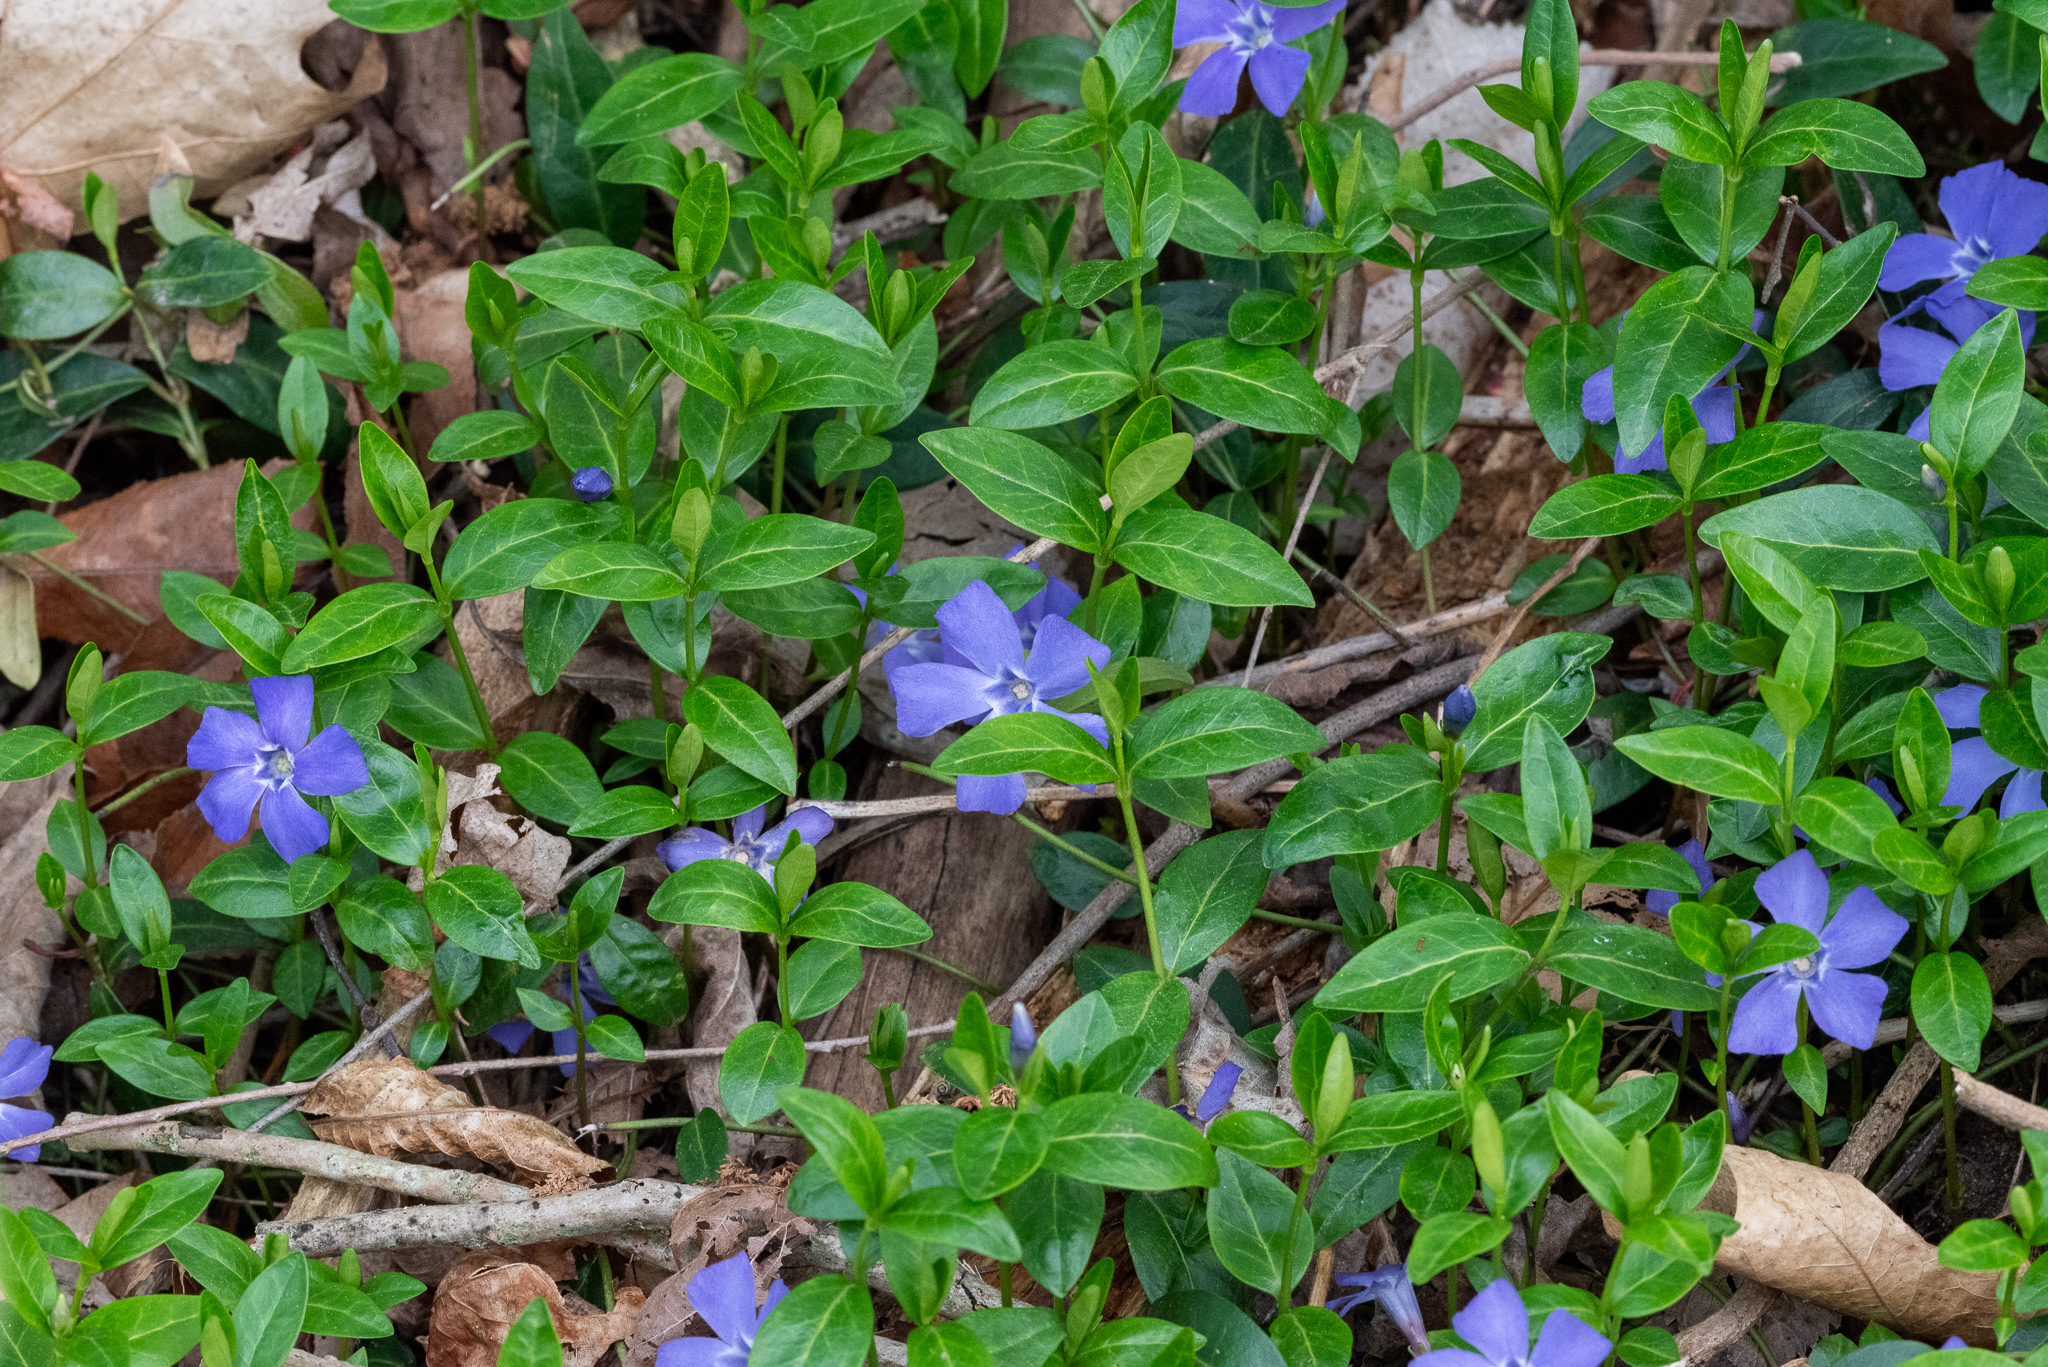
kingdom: Plantae
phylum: Tracheophyta
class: Magnoliopsida
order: Gentianales
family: Apocynaceae
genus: Vinca
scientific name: Vinca minor
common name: Lesser periwinkle
